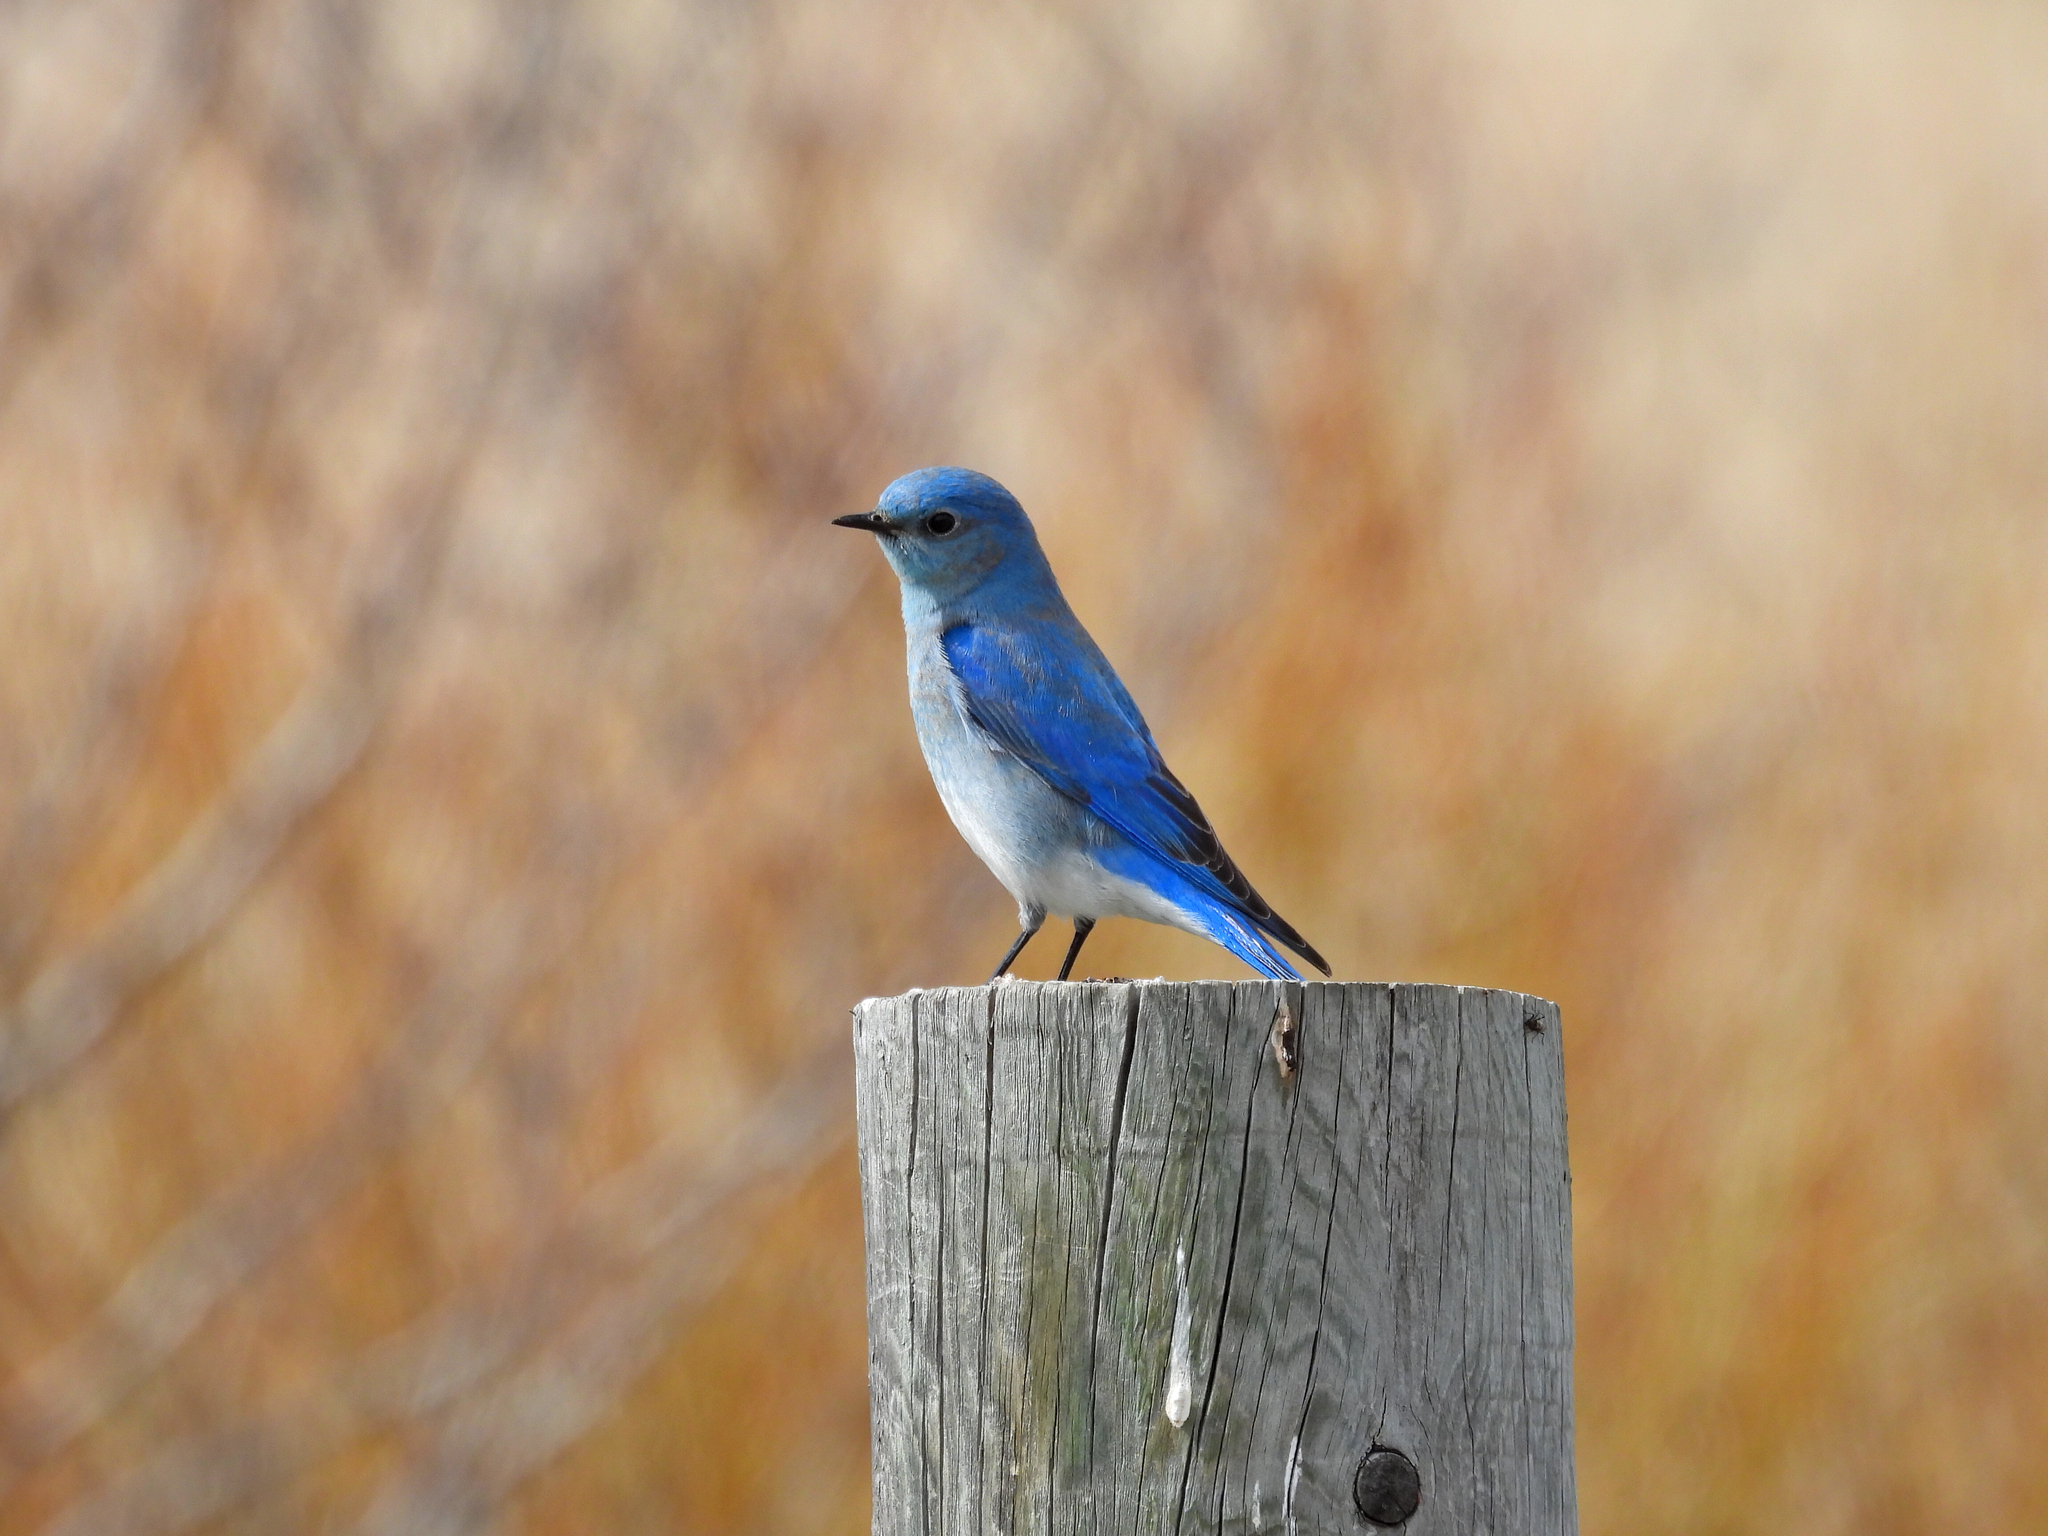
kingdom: Animalia
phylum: Chordata
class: Aves
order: Passeriformes
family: Turdidae
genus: Sialia
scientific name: Sialia currucoides
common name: Mountain bluebird
